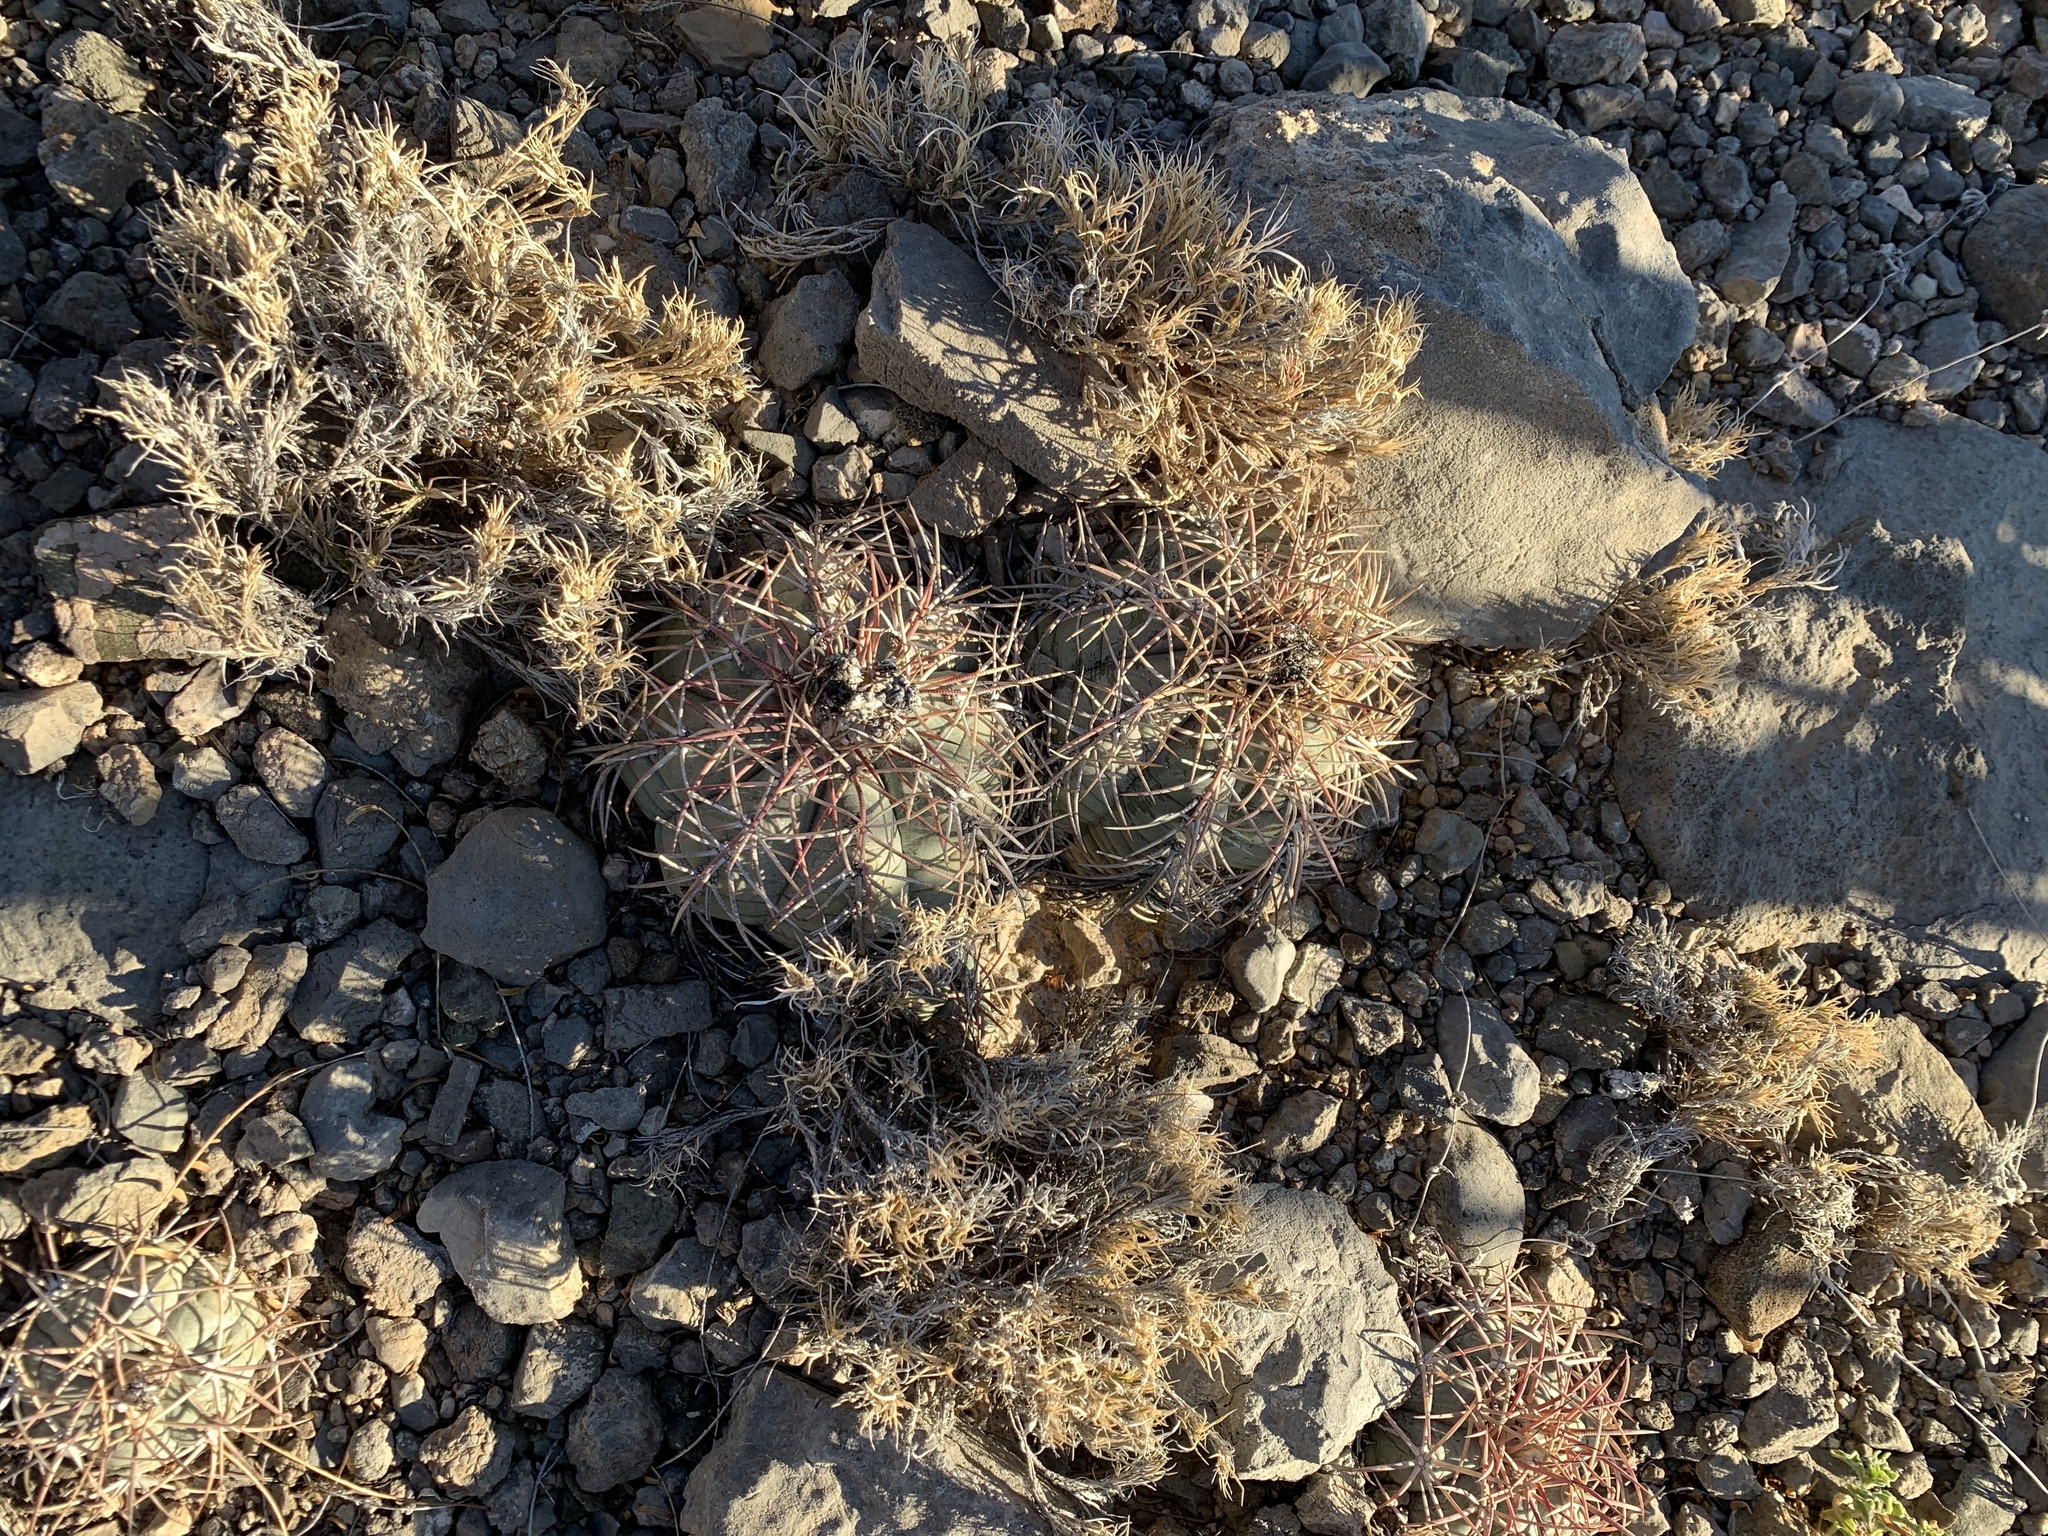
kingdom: Plantae
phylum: Tracheophyta
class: Magnoliopsida
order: Caryophyllales
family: Cactaceae
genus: Echinocactus
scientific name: Echinocactus horizonthalonius
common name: Devilshead
